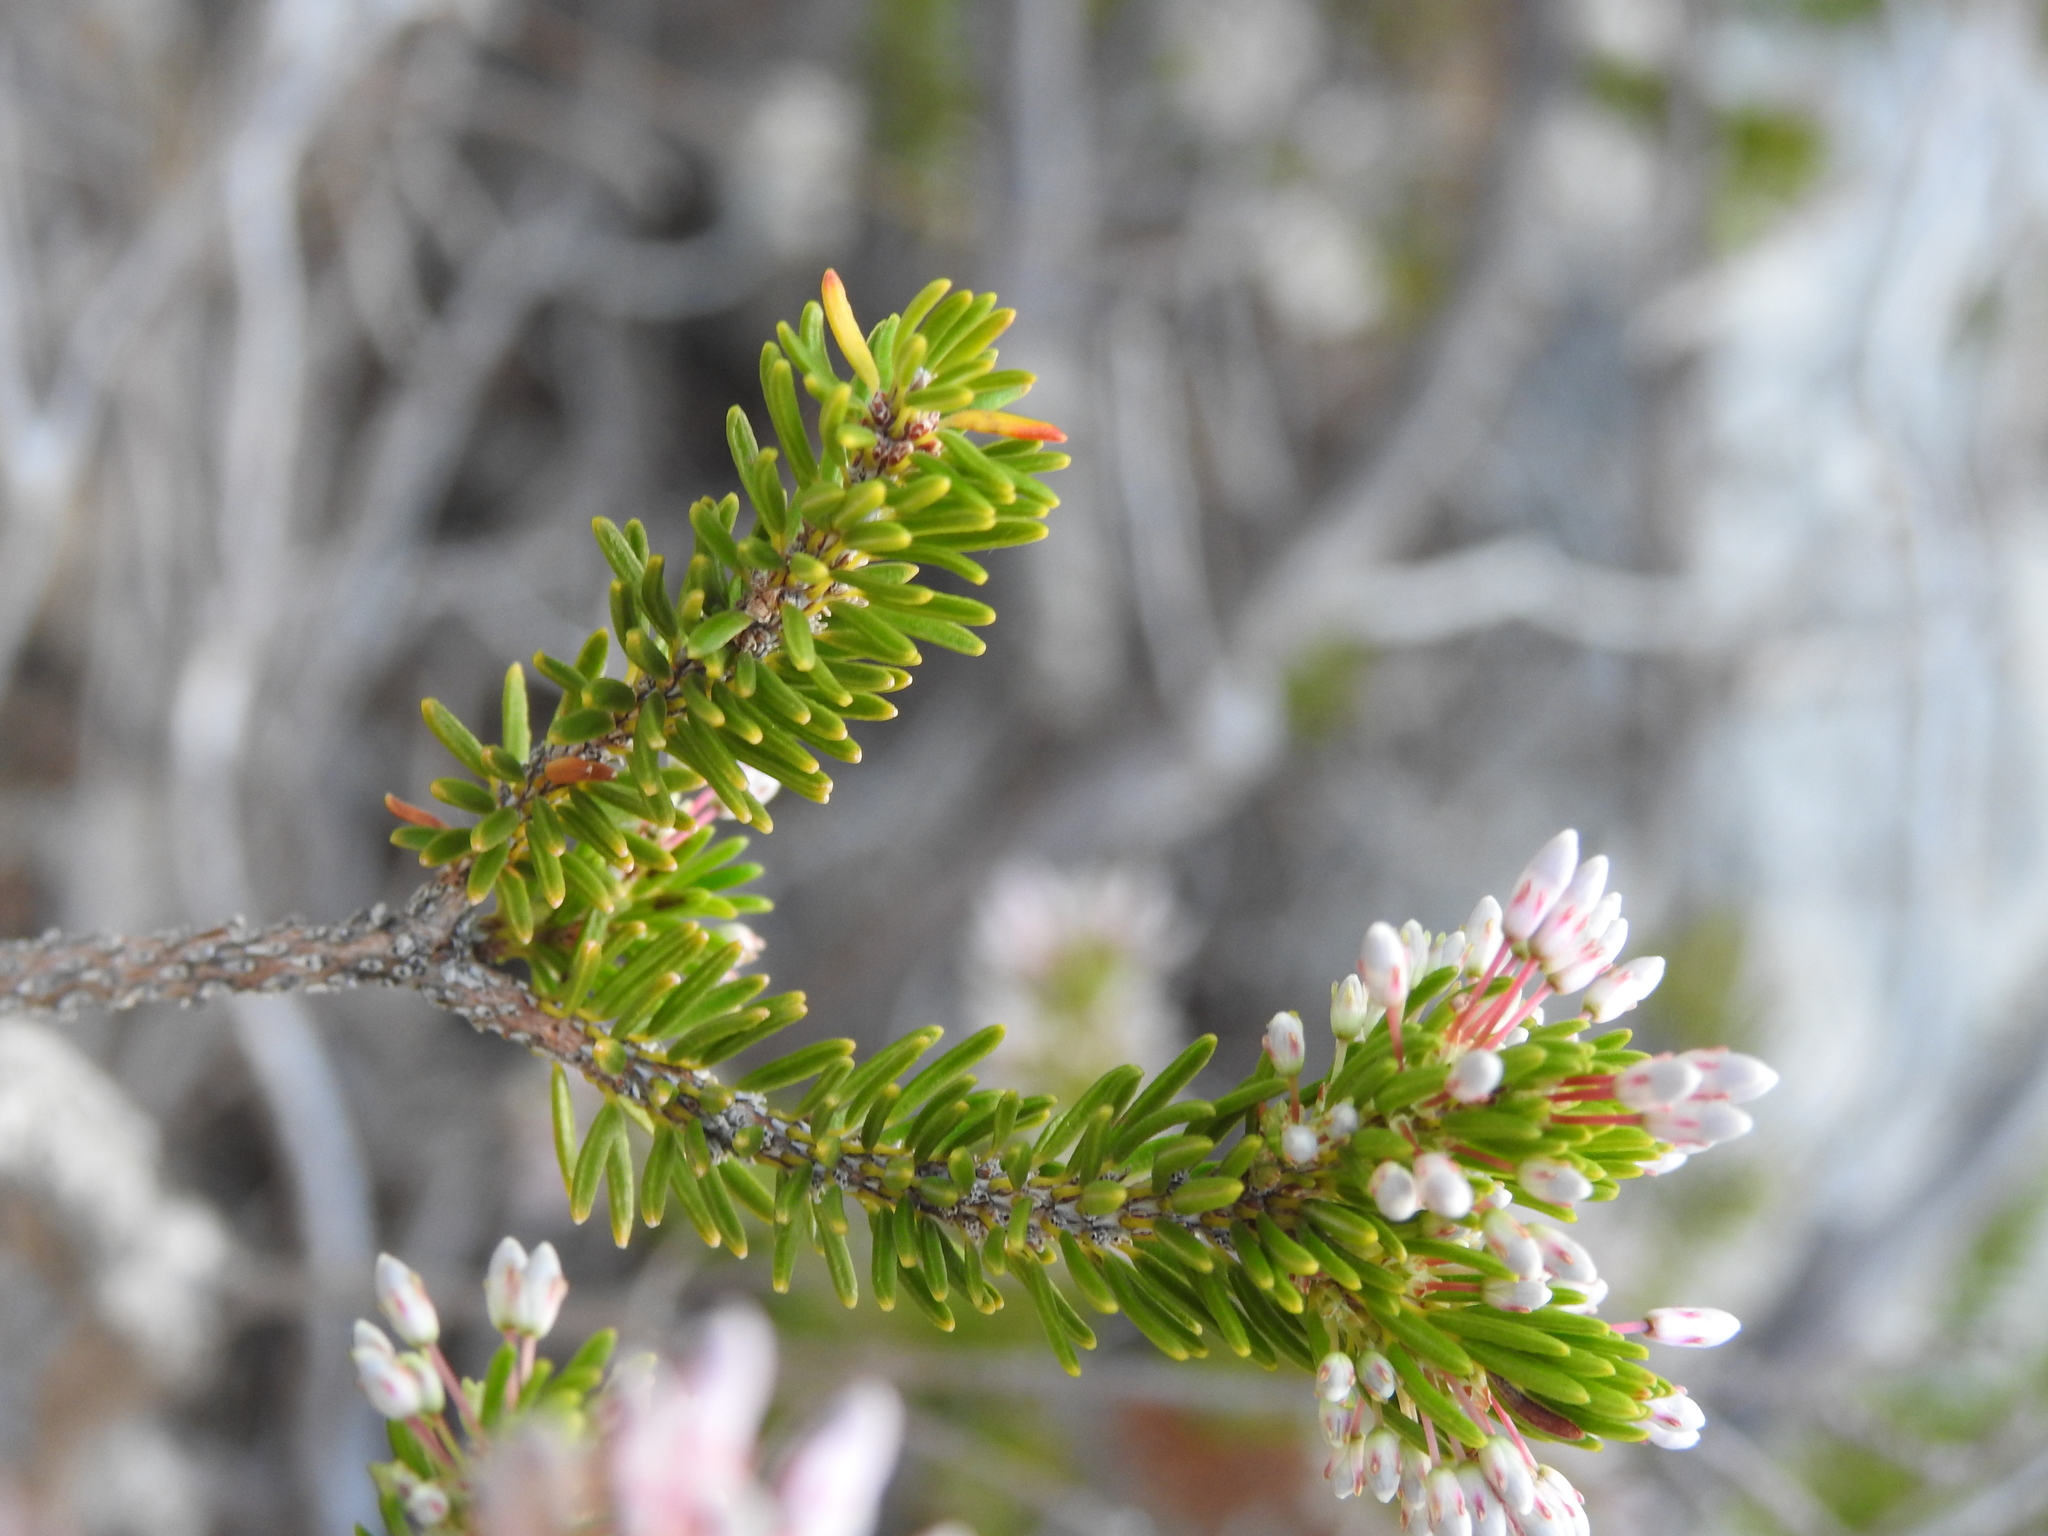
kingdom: Plantae
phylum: Tracheophyta
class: Magnoliopsida
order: Ericales
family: Ericaceae
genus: Erica
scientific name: Erica multiflora
